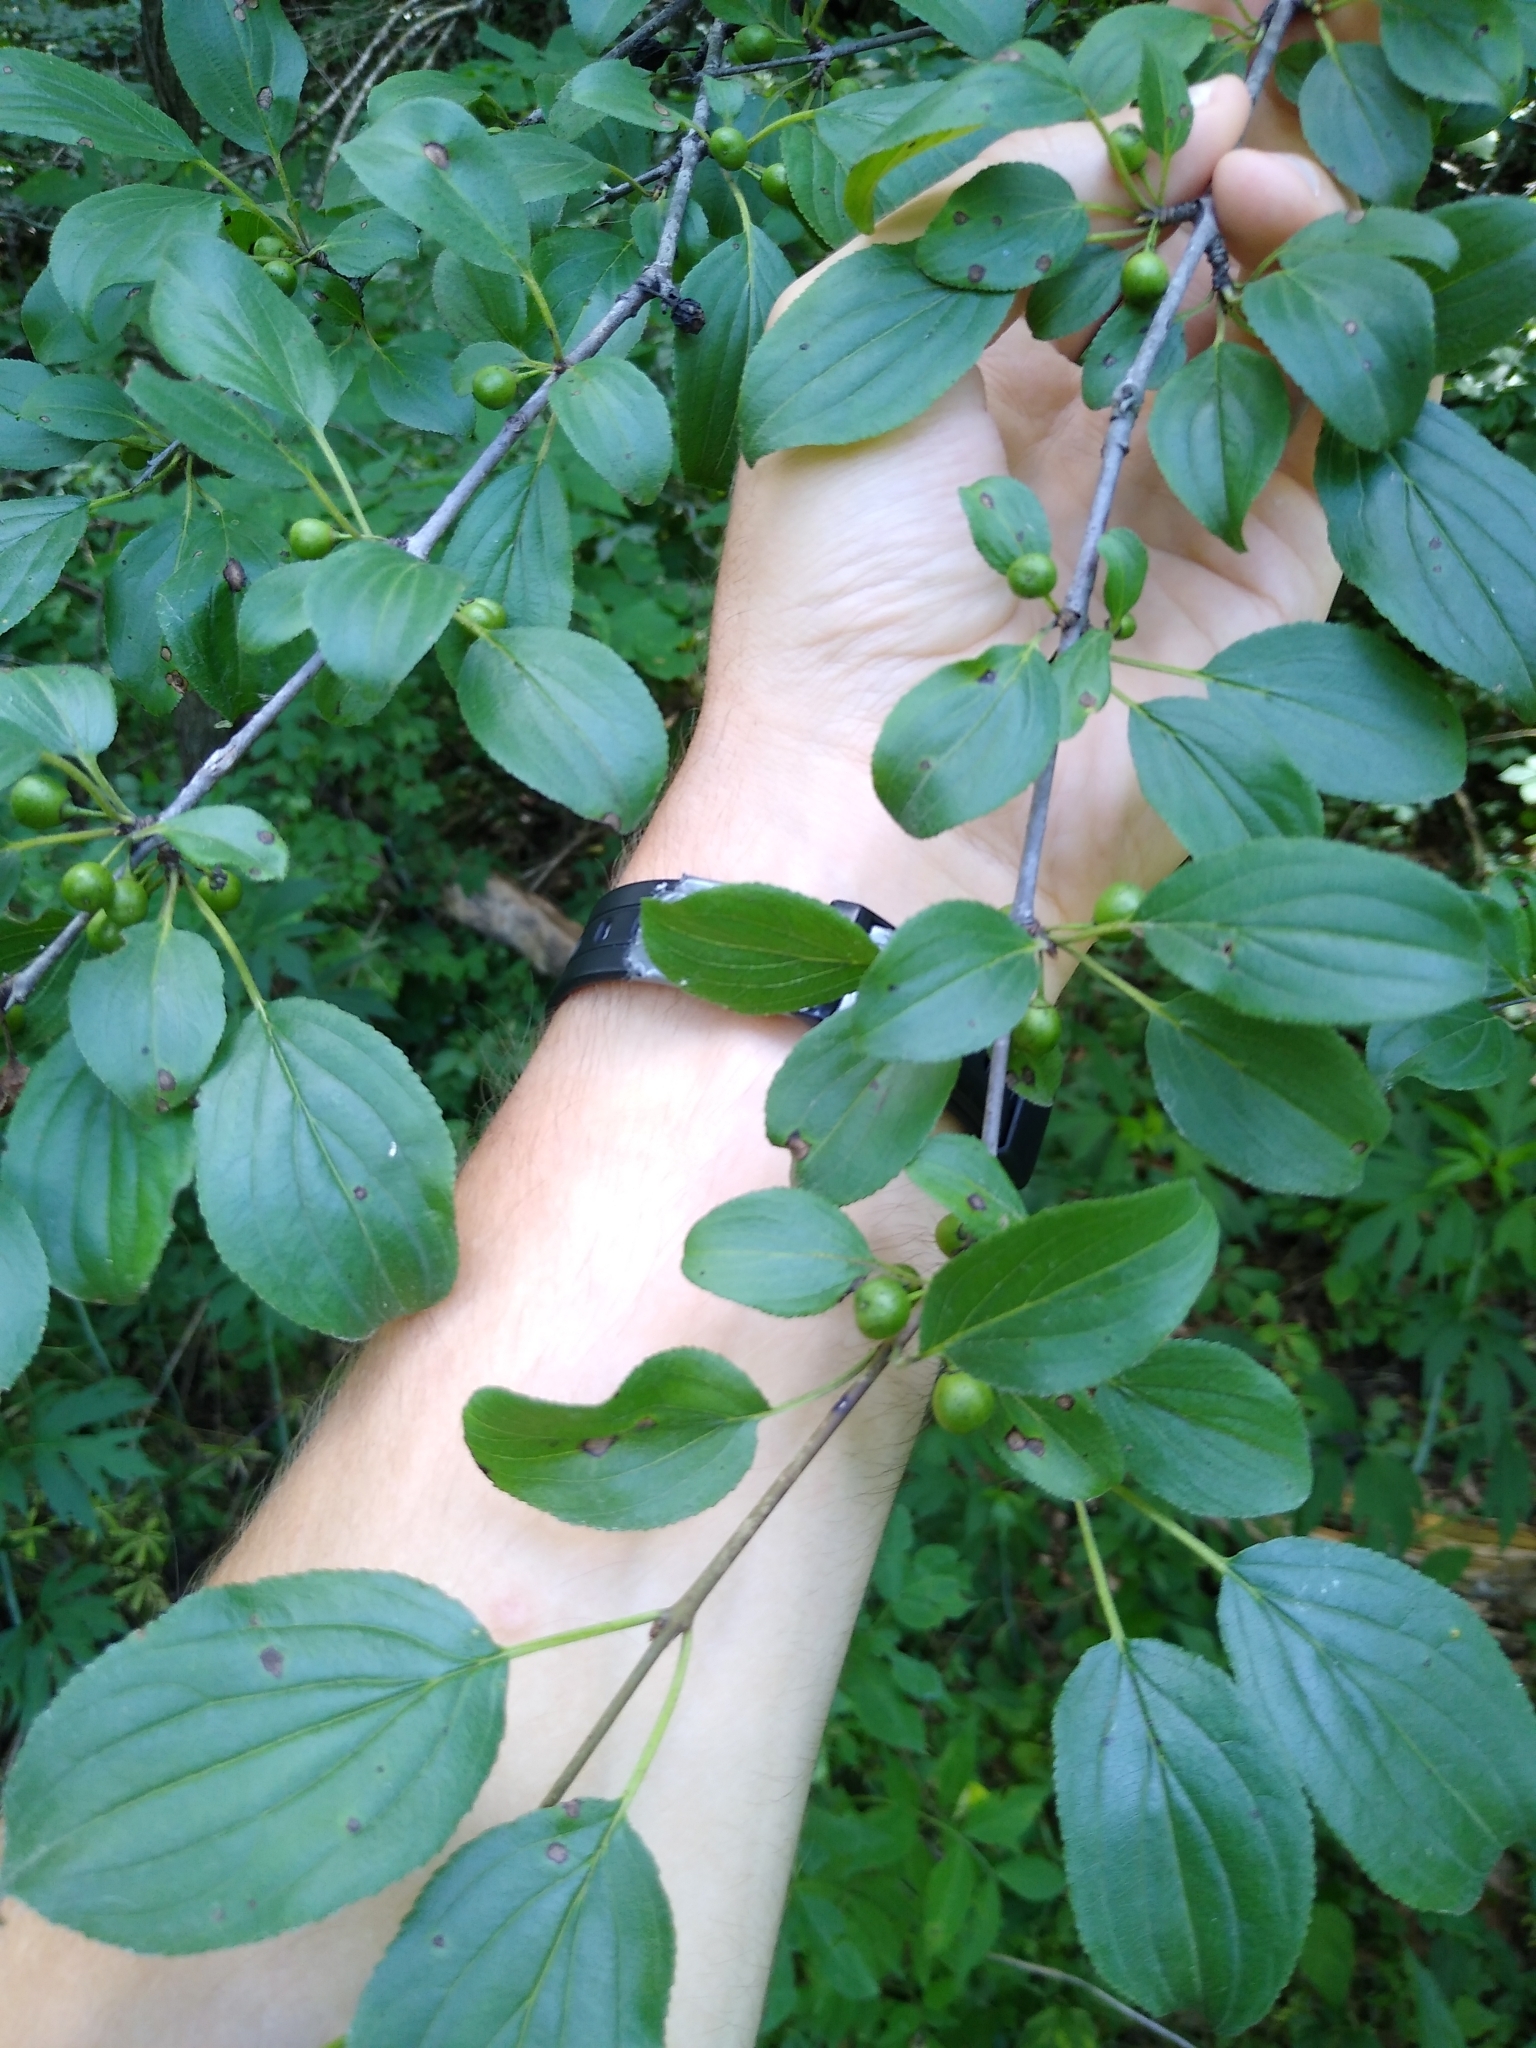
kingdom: Plantae
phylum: Tracheophyta
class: Magnoliopsida
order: Rosales
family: Rhamnaceae
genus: Rhamnus
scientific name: Rhamnus cathartica
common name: Common buckthorn
